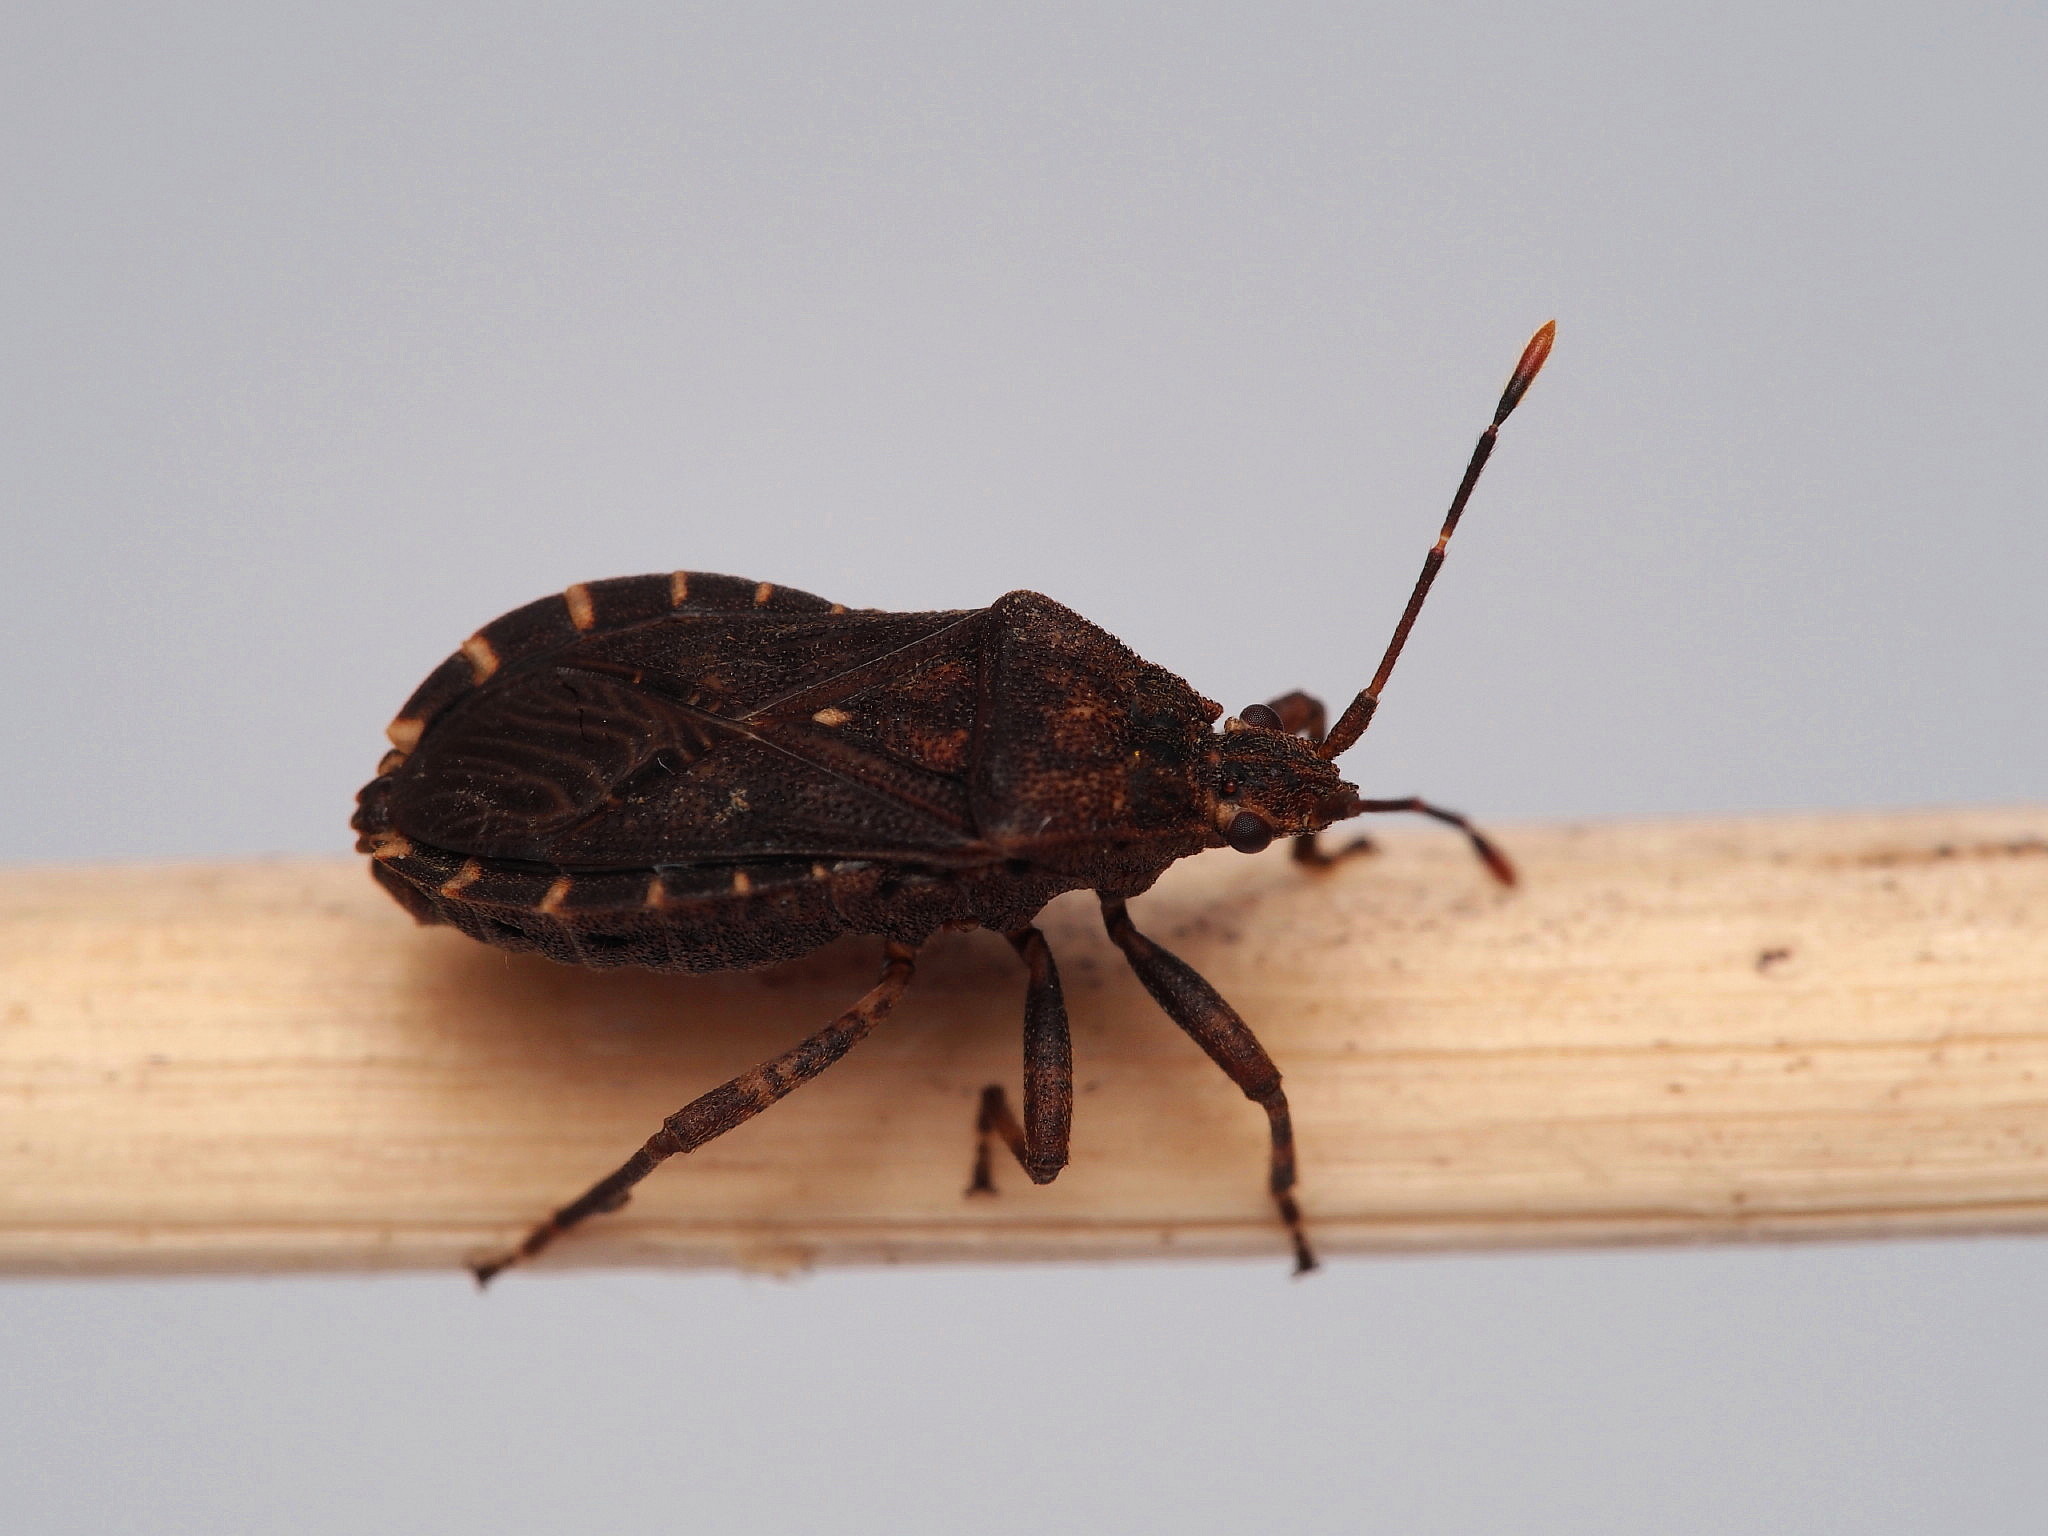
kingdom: Animalia
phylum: Arthropoda
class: Insecta
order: Hemiptera
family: Coreidae
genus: Acantholybas
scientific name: Acantholybas brunneus
